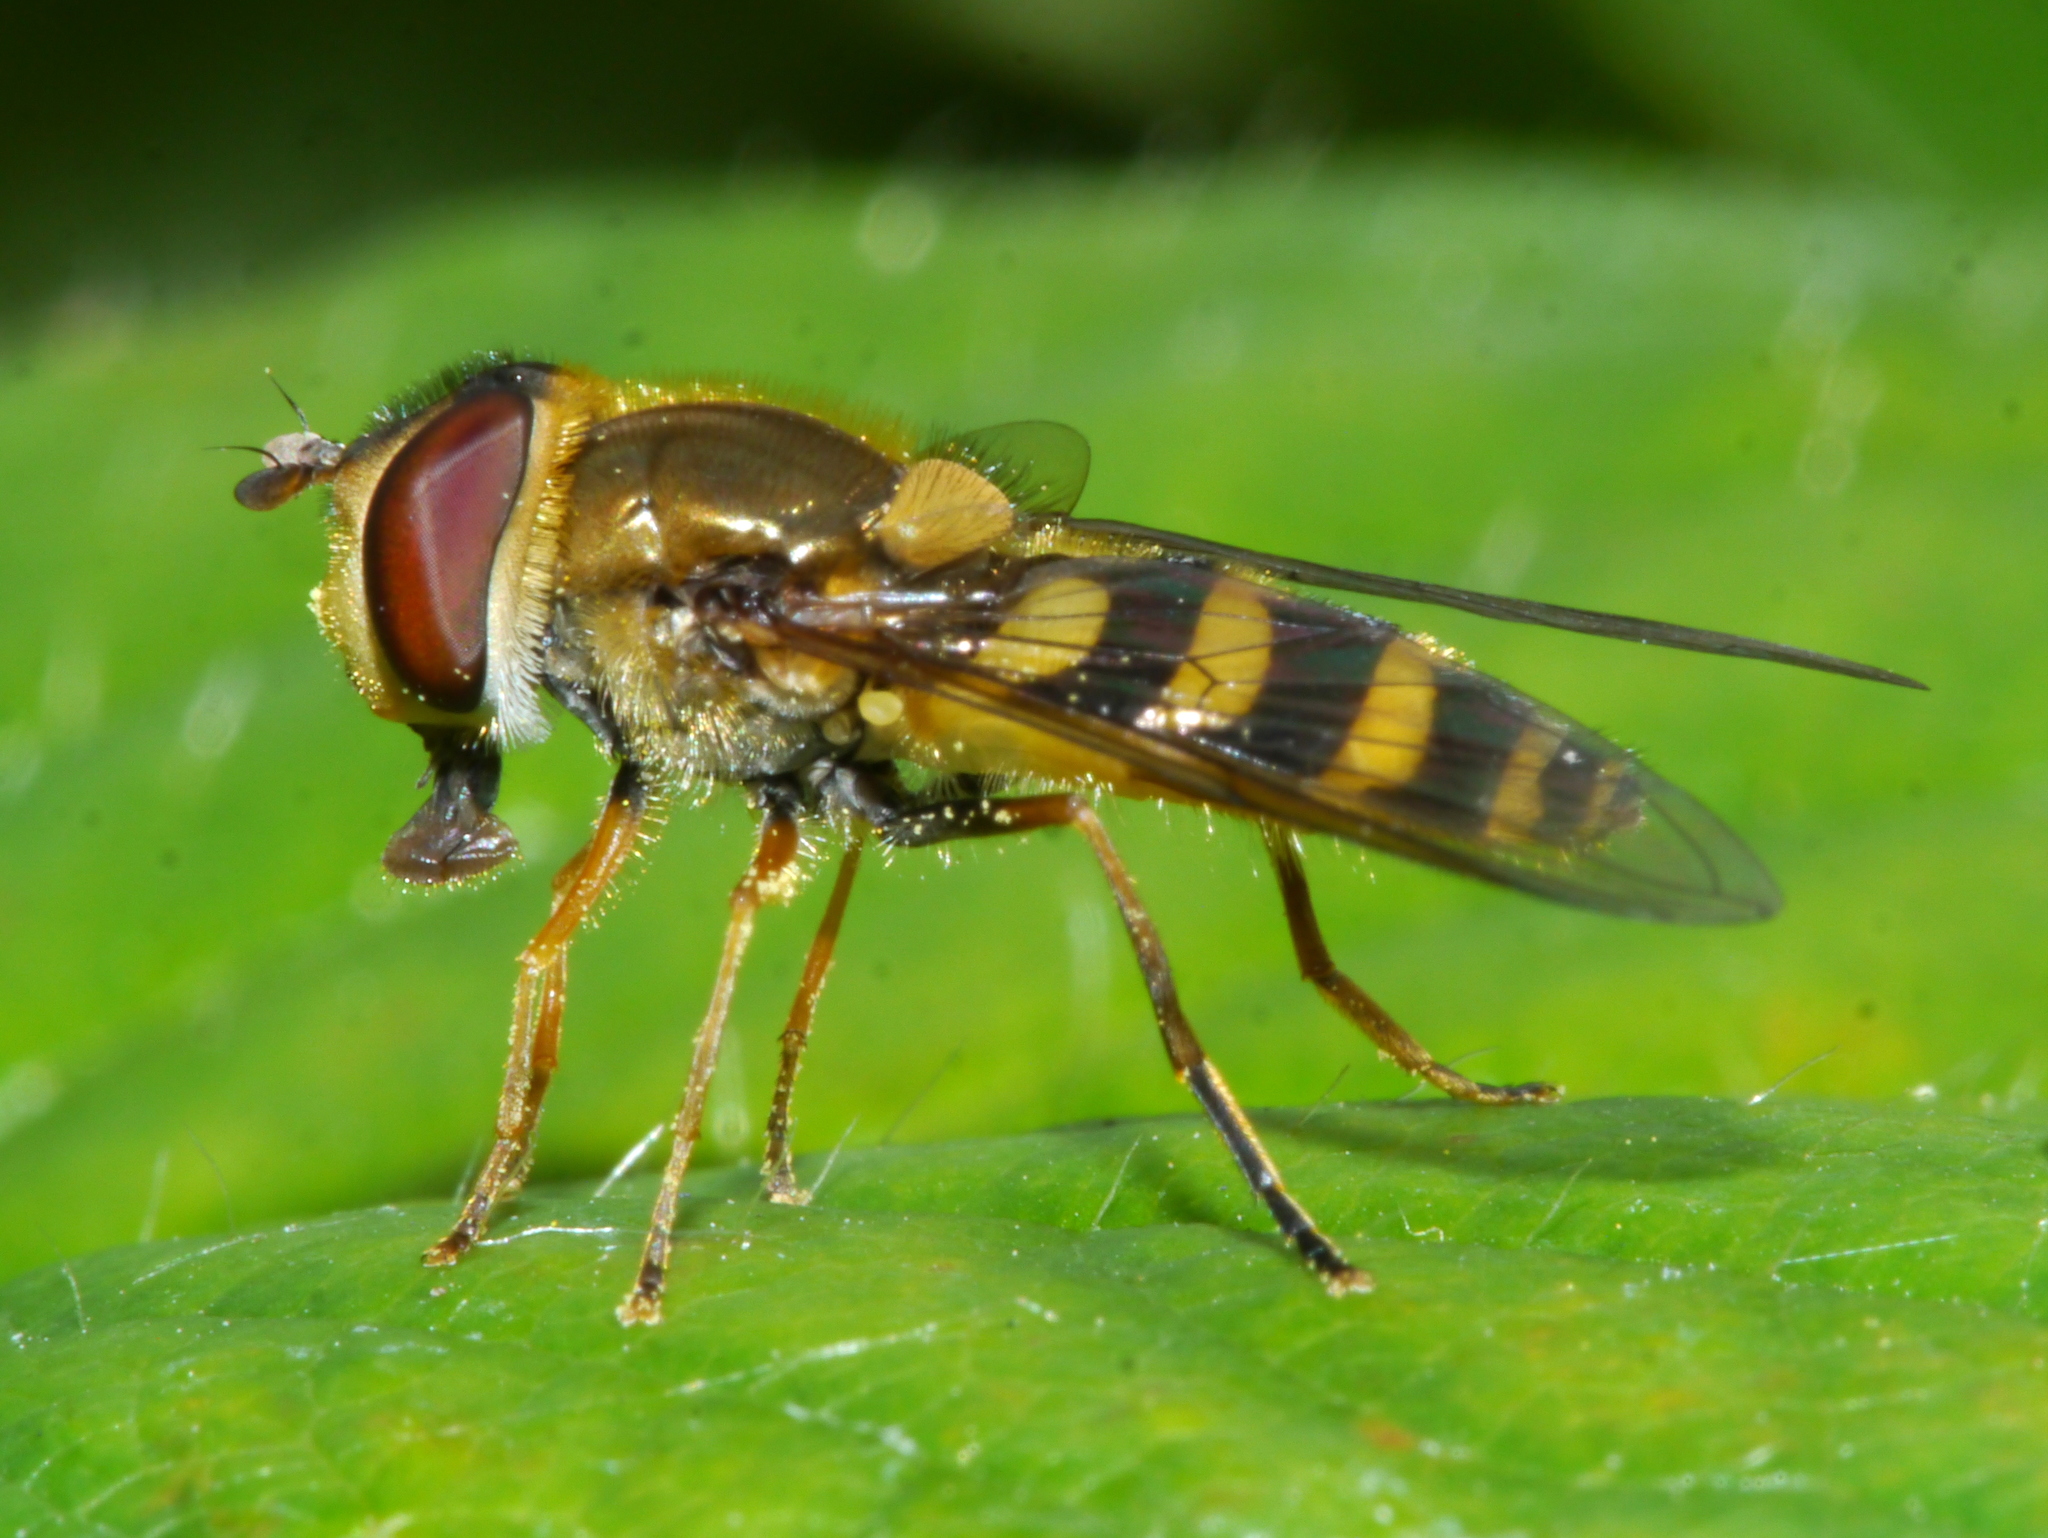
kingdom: Animalia
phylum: Arthropoda
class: Insecta
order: Diptera
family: Syrphidae
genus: Syrphus
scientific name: Syrphus
